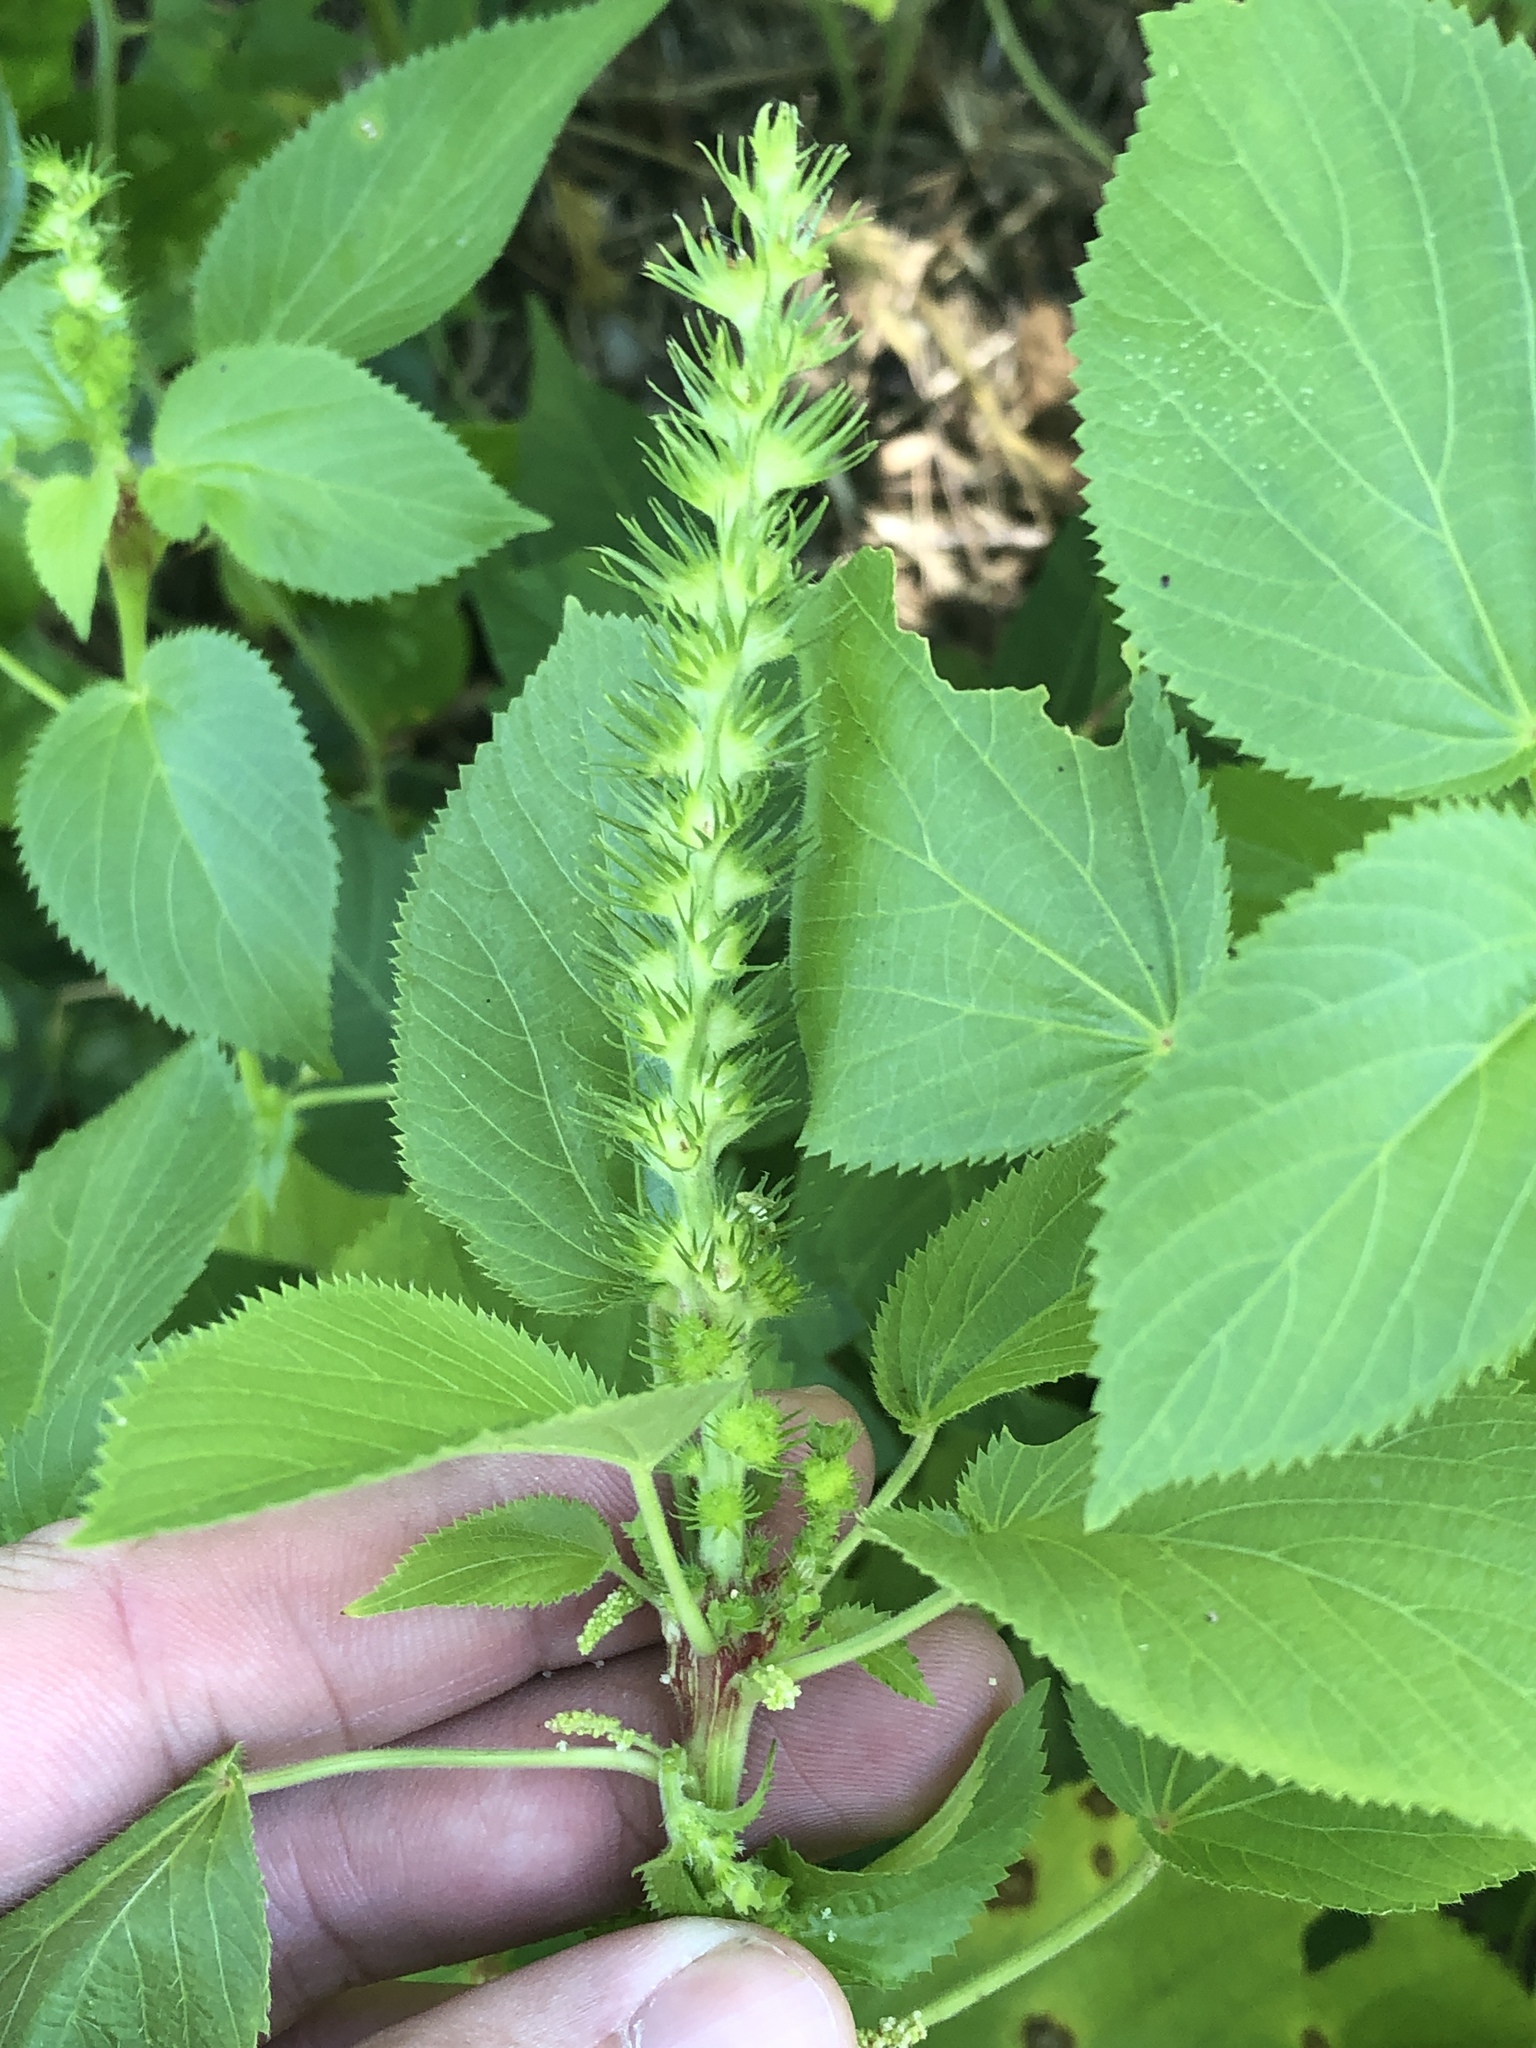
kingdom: Plantae
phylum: Tracheophyta
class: Magnoliopsida
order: Malpighiales
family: Euphorbiaceae
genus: Acalypha
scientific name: Acalypha ostryifolia
